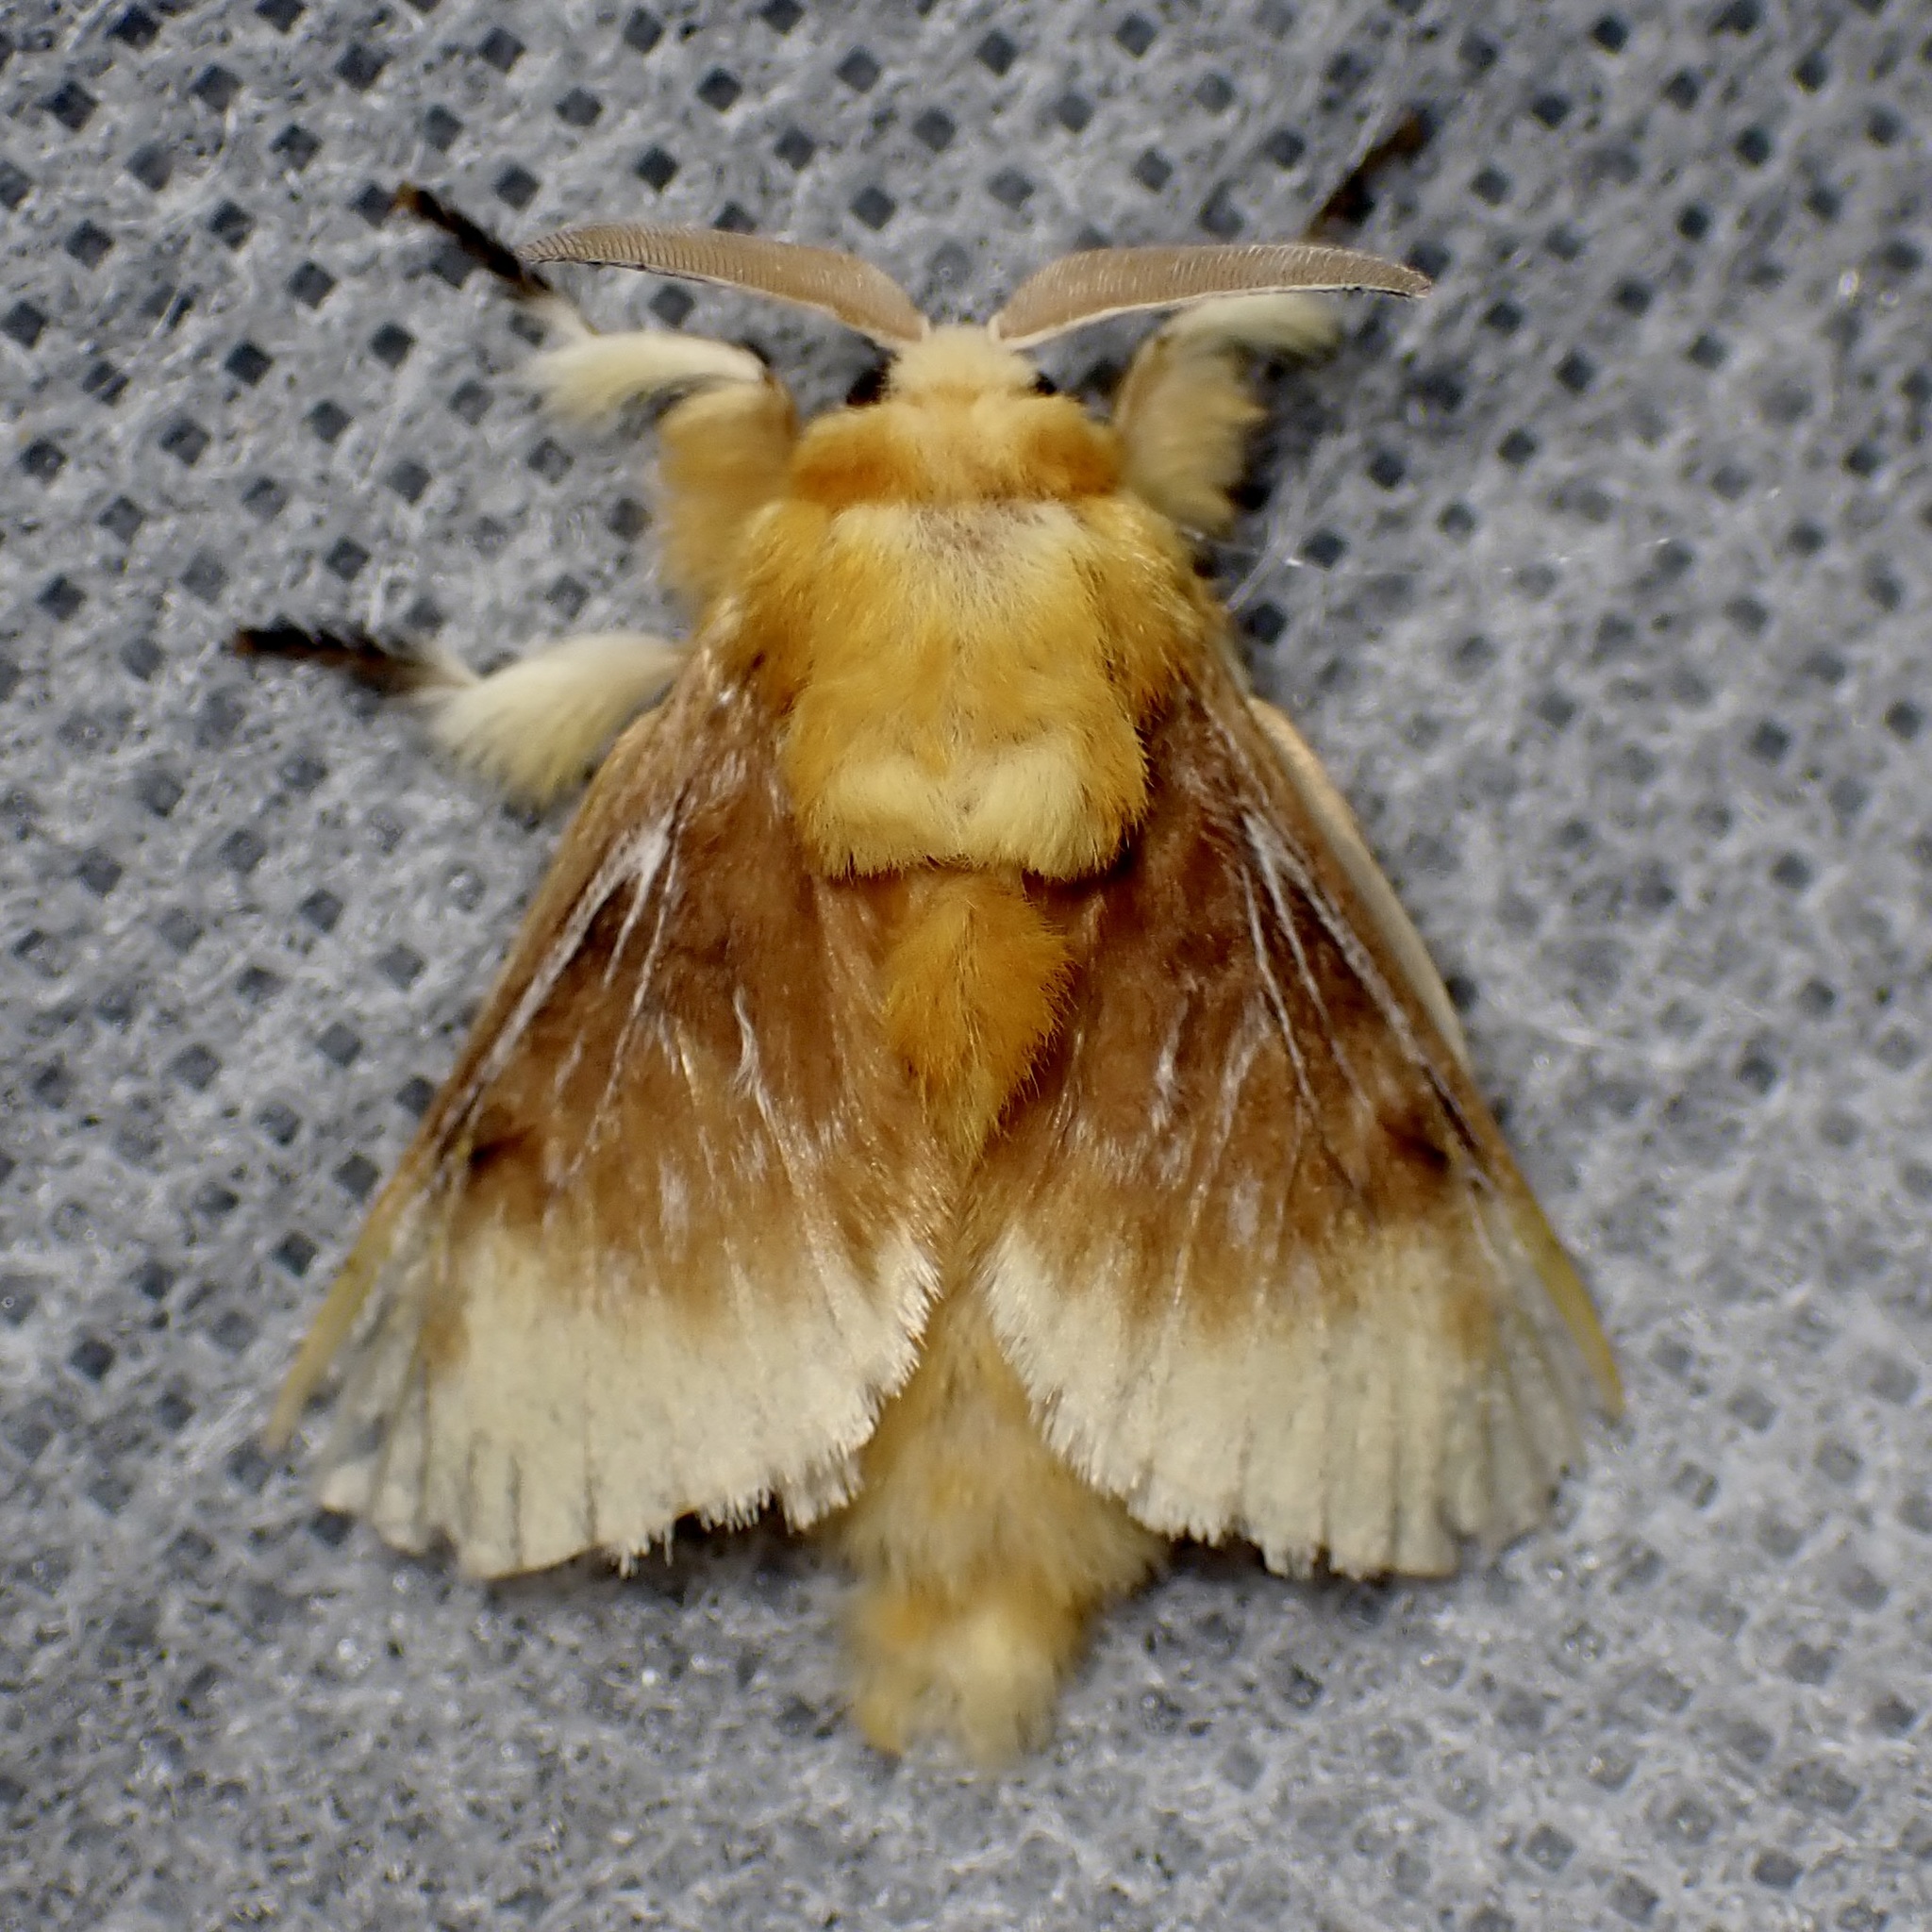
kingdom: Animalia
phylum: Arthropoda
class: Insecta
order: Lepidoptera
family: Megalopygidae
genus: Megalopyge
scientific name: Megalopyge opercularis
